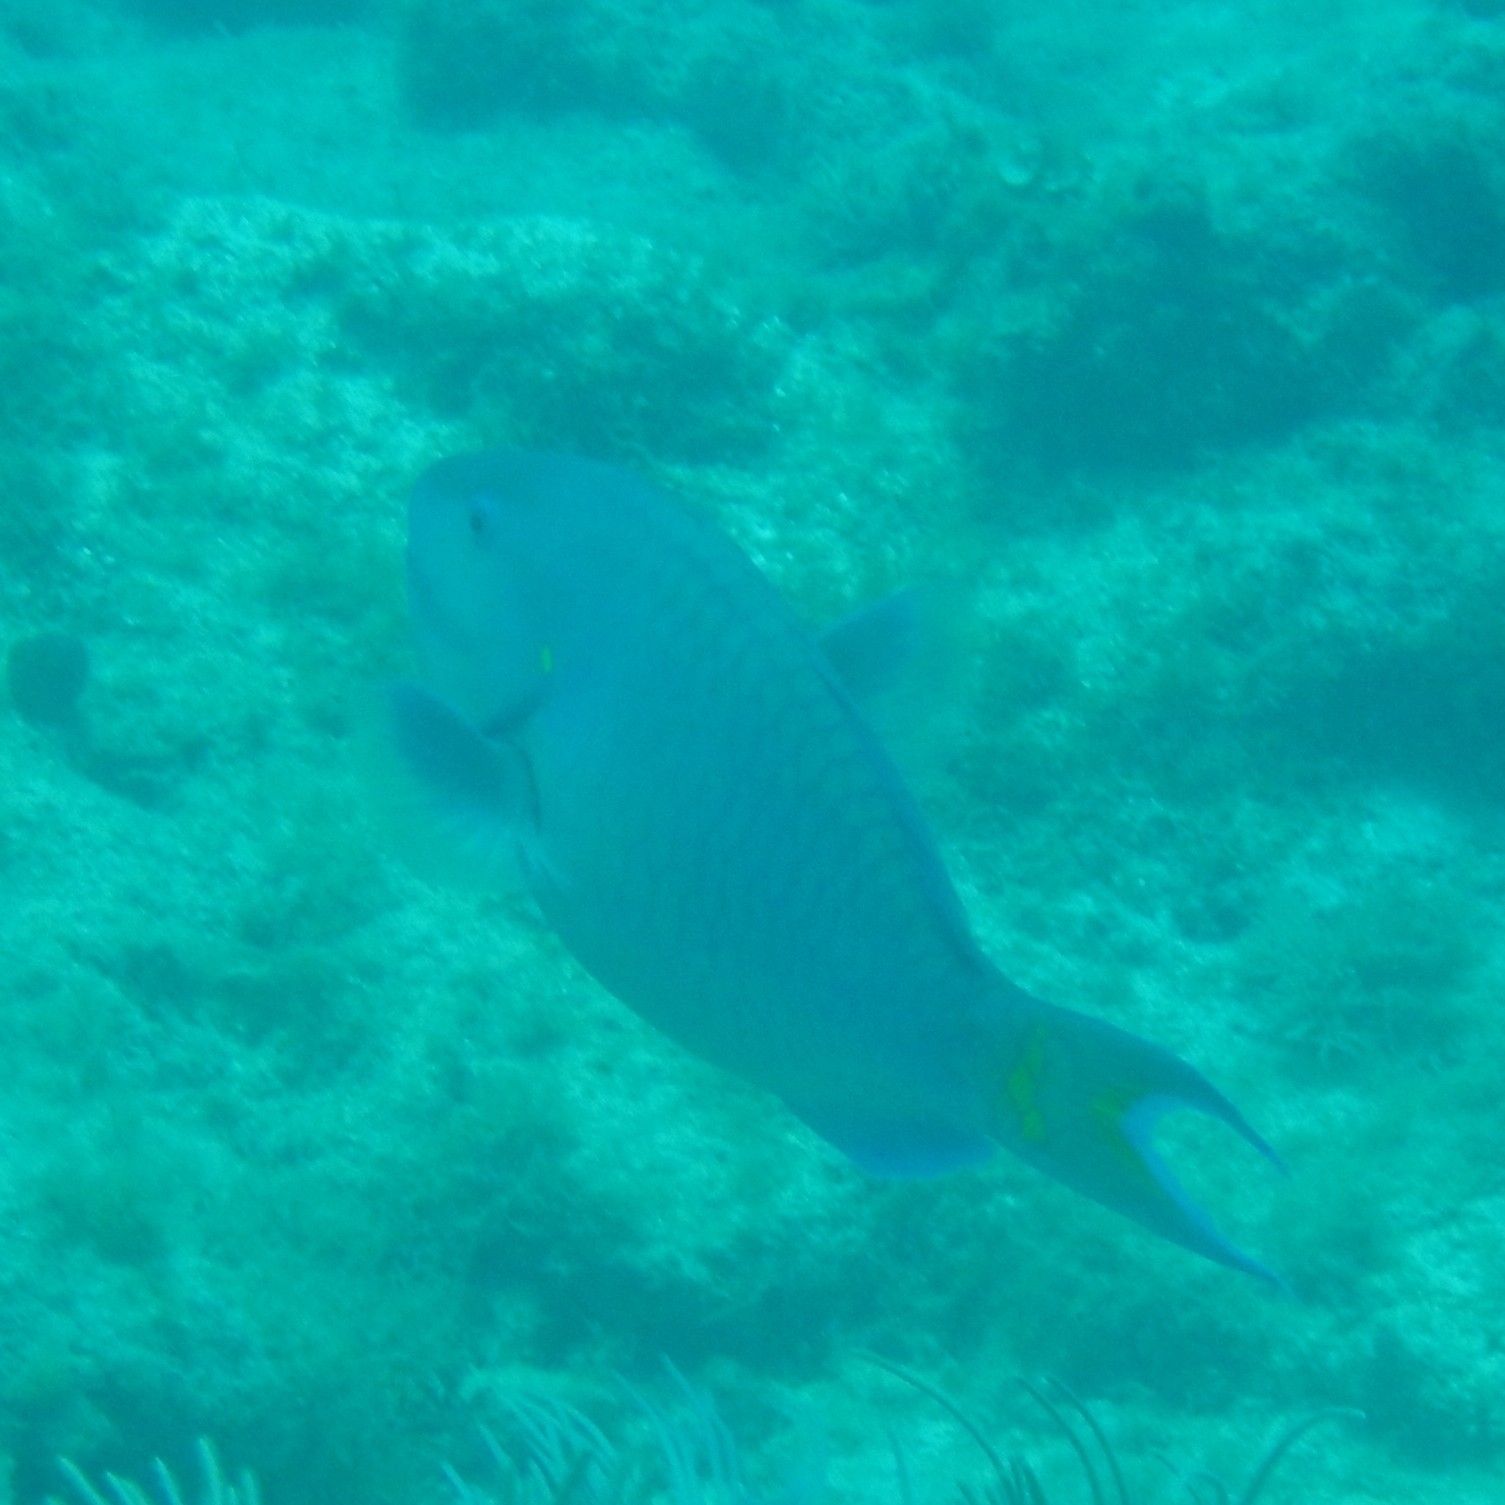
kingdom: Animalia
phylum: Chordata
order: Perciformes
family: Scaridae
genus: Sparisoma
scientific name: Sparisoma viride
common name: Stoplight parrotfish
